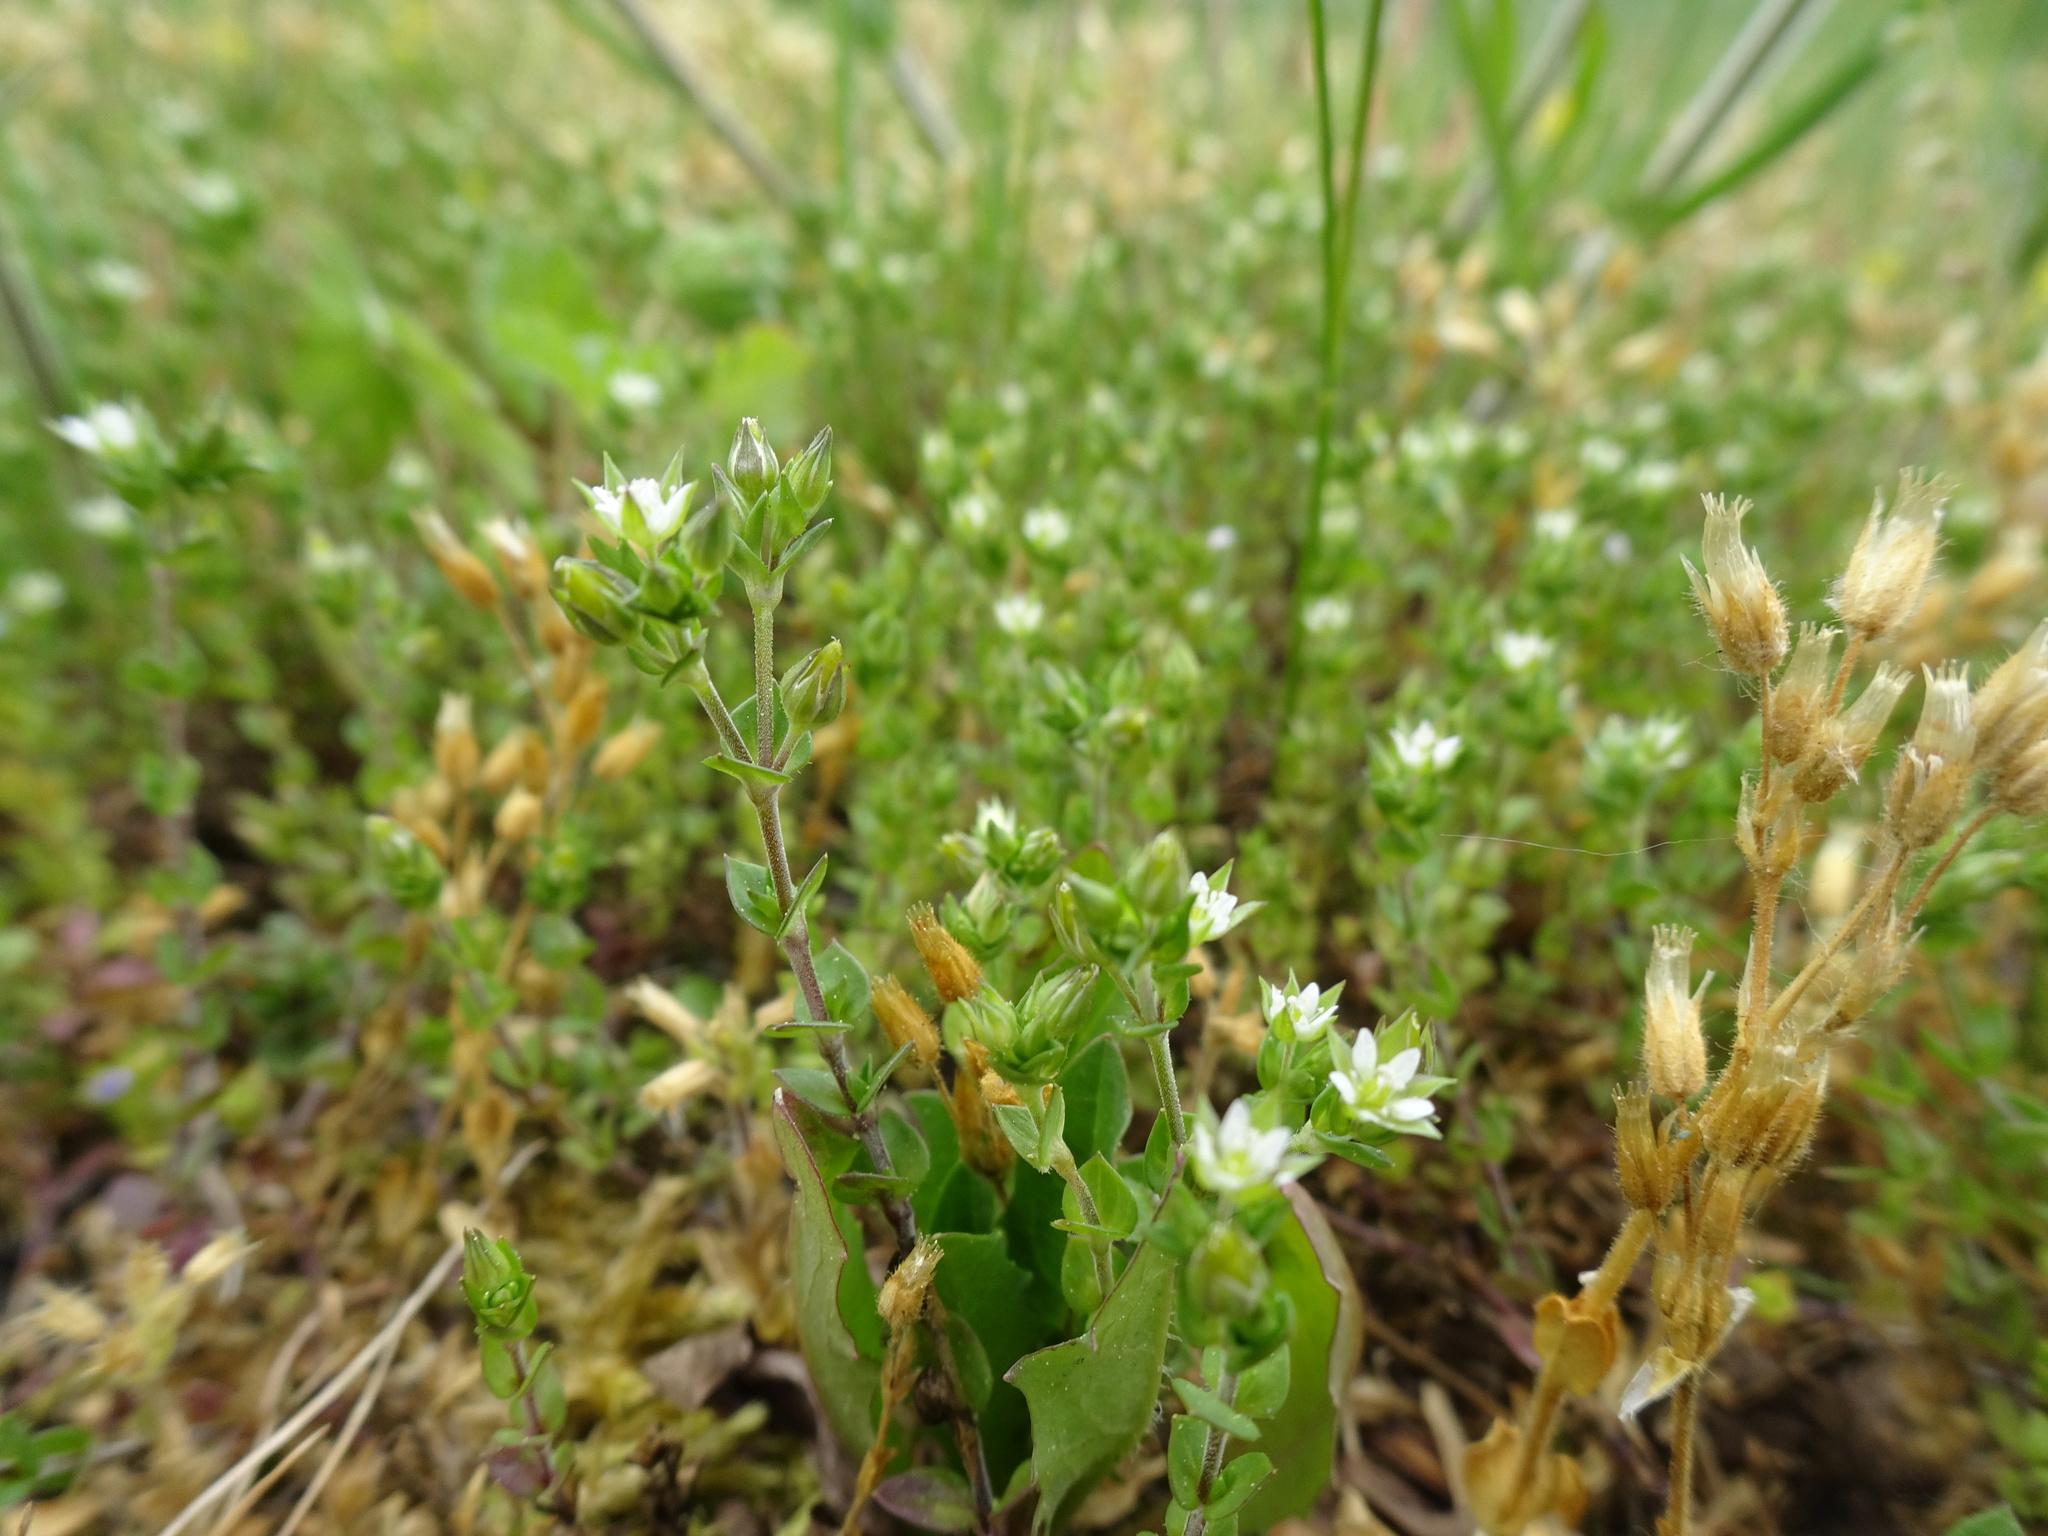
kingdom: Plantae
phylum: Tracheophyta
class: Magnoliopsida
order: Caryophyllales
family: Caryophyllaceae
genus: Arenaria
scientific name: Arenaria serpyllifolia
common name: Thyme-leaved sandwort
